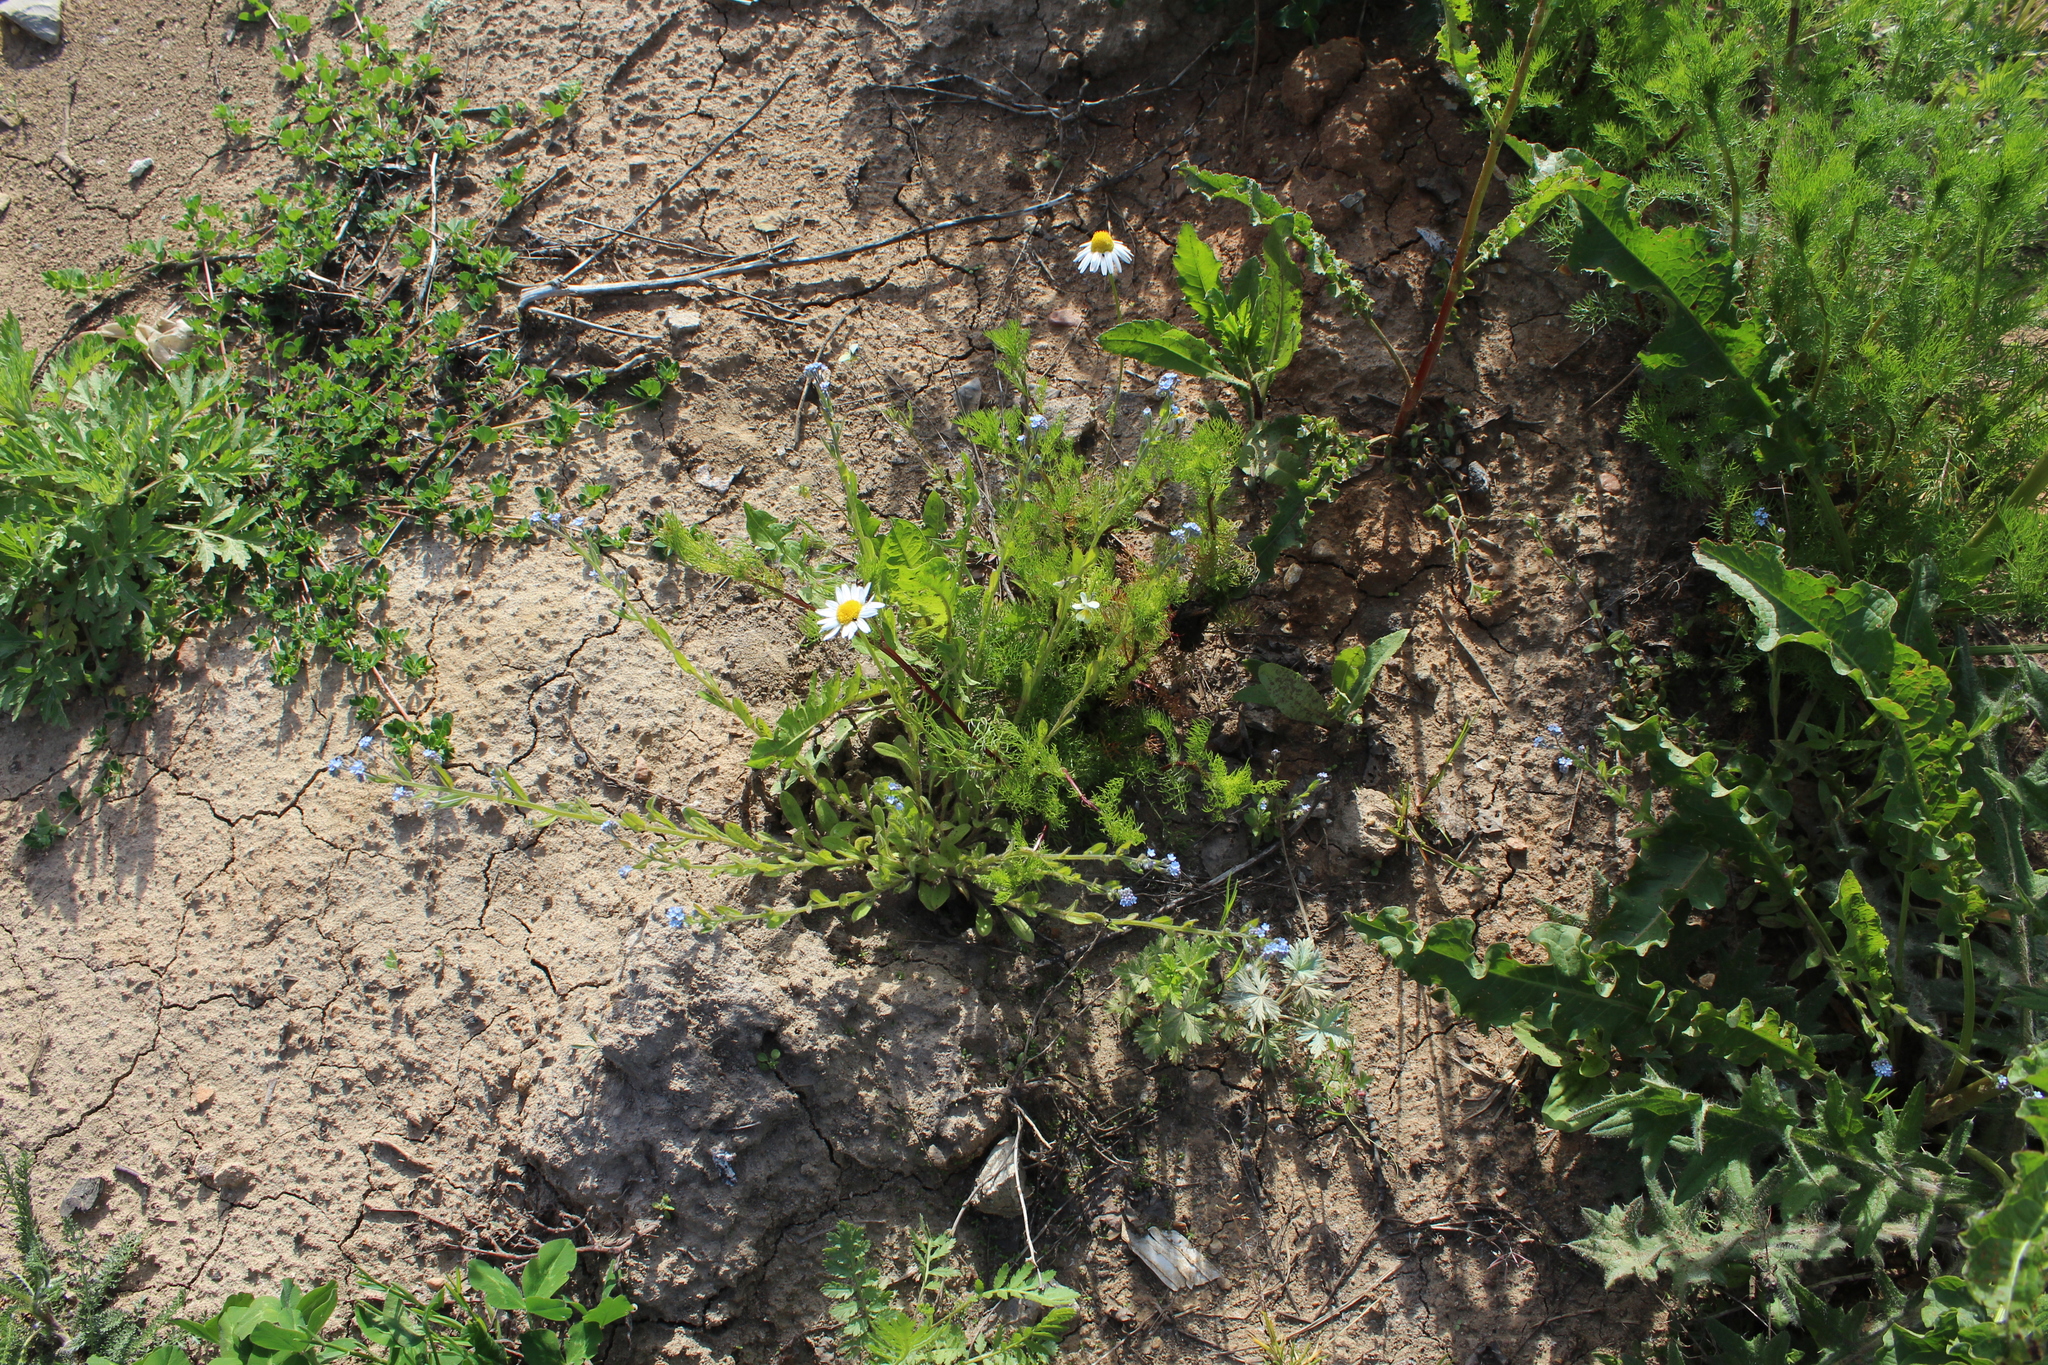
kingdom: Plantae
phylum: Tracheophyta
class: Magnoliopsida
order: Boraginales
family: Boraginaceae
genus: Myosotis
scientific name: Myosotis arvensis
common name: Field forget-me-not
